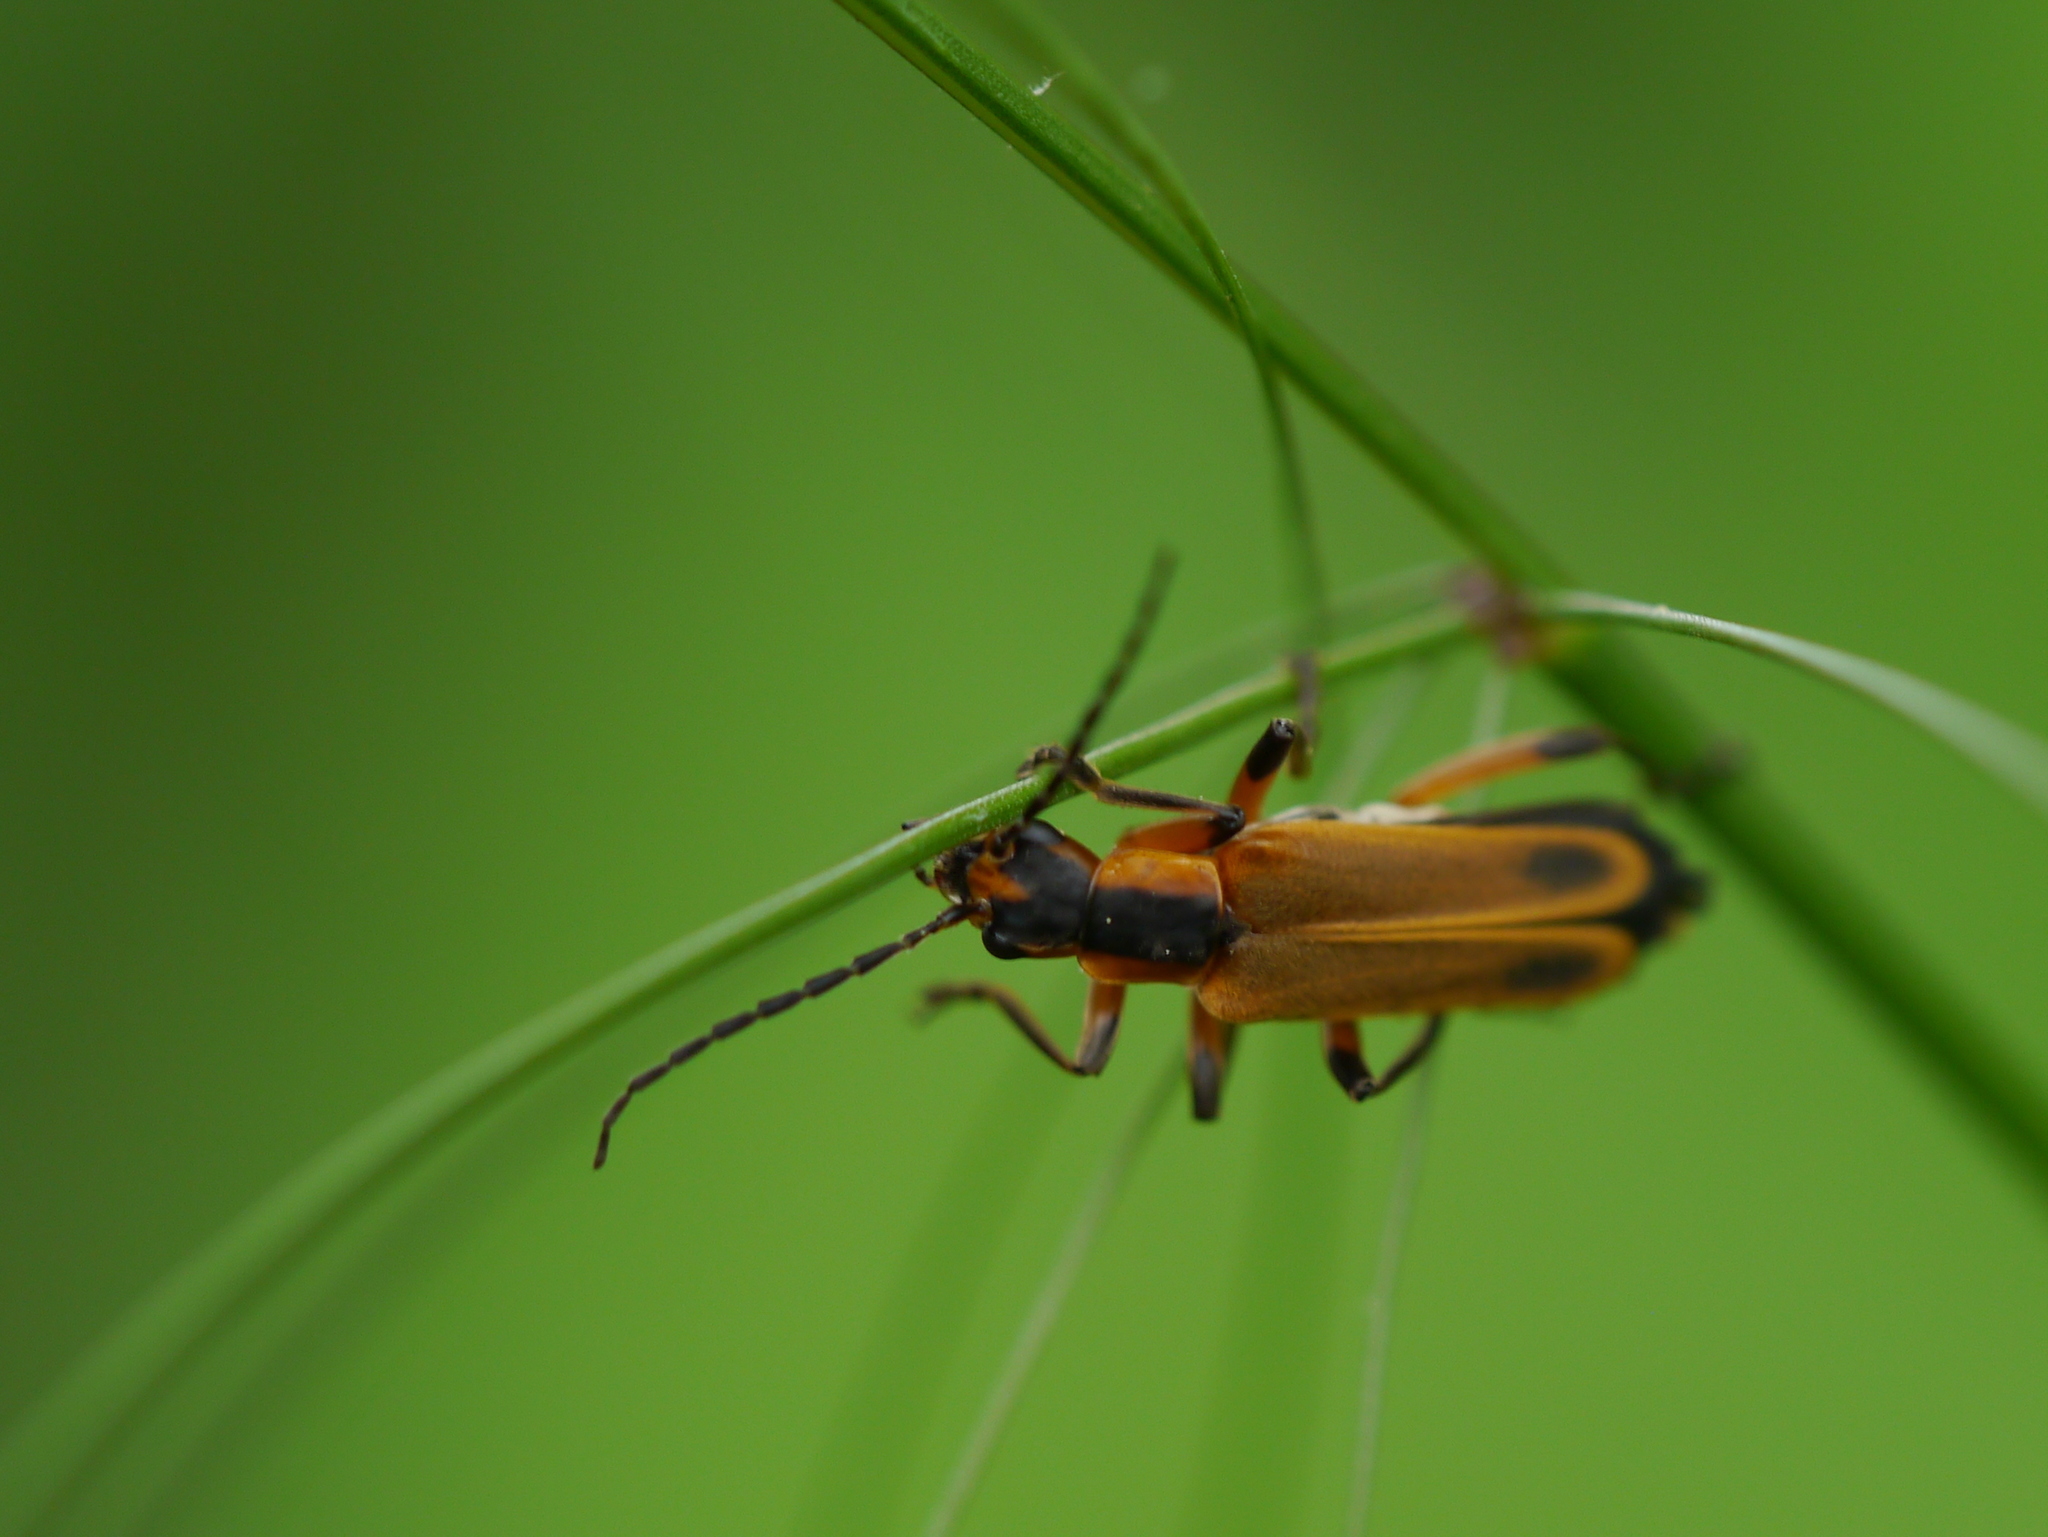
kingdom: Animalia
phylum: Arthropoda
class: Insecta
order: Coleoptera
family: Cantharidae
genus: Chauliognathus
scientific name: Chauliognathus marginatus
